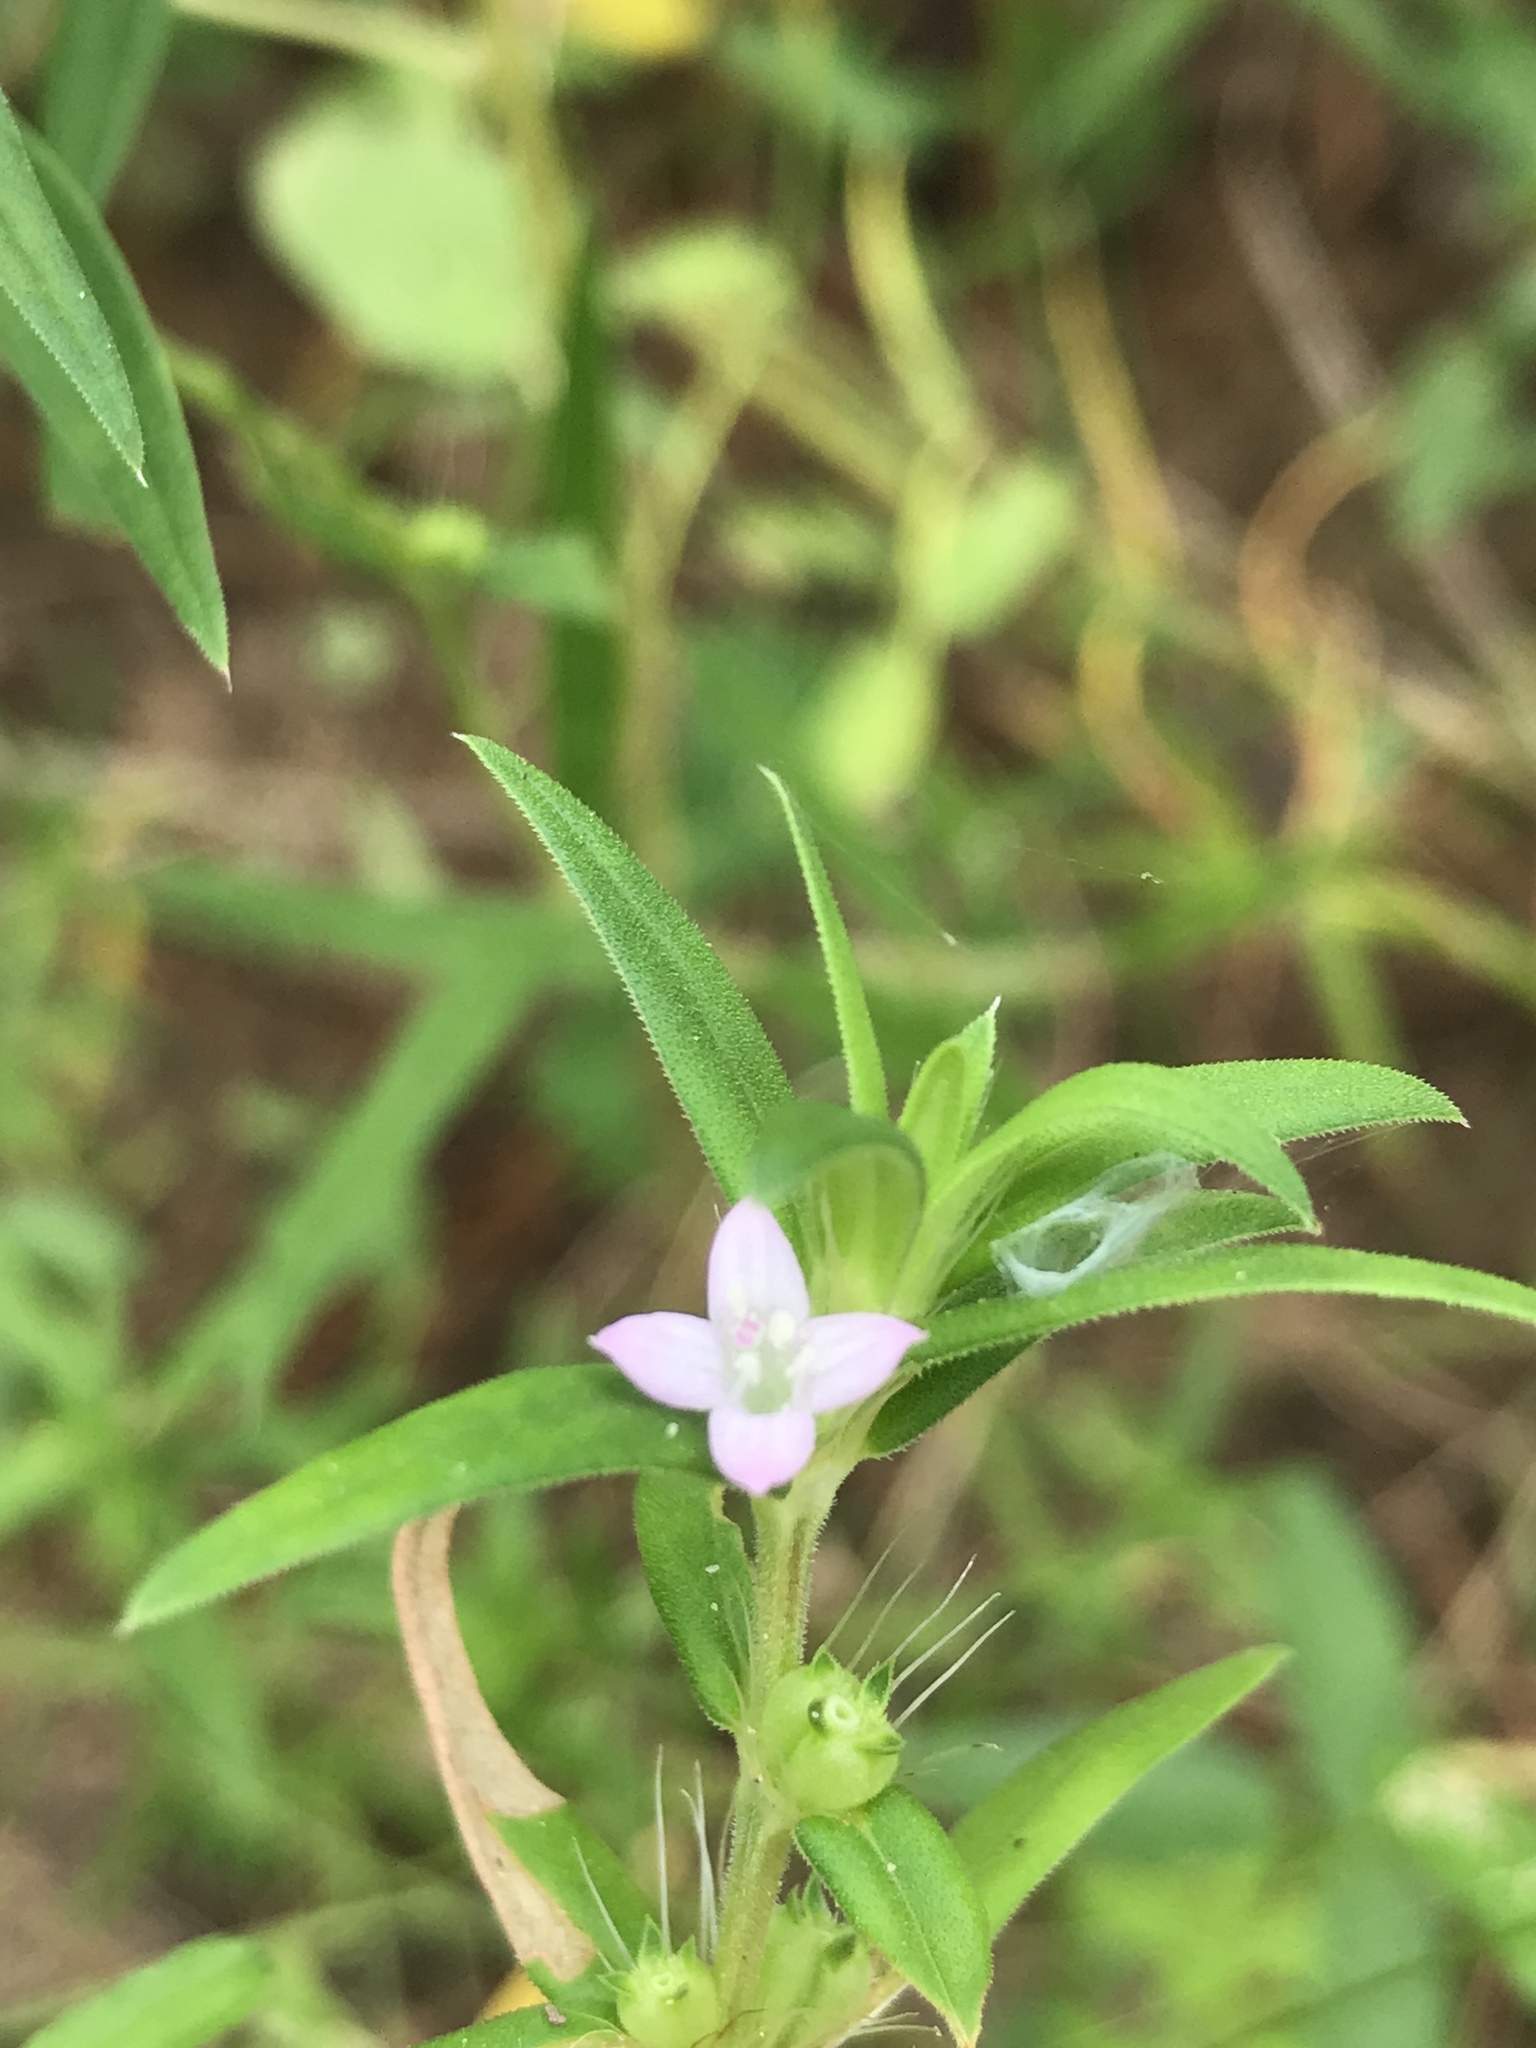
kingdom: Plantae
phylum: Tracheophyta
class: Magnoliopsida
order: Gentianales
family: Rubiaceae
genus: Hexasepalum
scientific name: Hexasepalum teres
